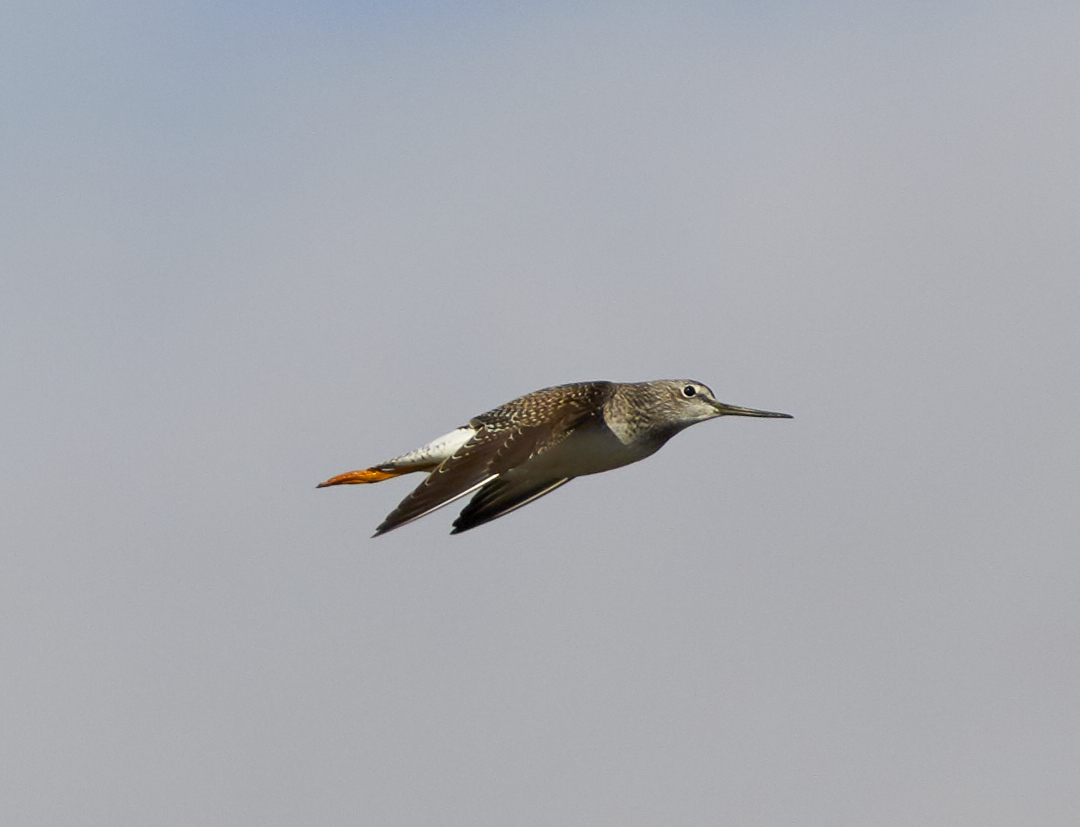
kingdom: Animalia
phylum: Chordata
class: Aves
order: Charadriiformes
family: Scolopacidae
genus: Tringa
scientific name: Tringa melanoleuca
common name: Greater yellowlegs
